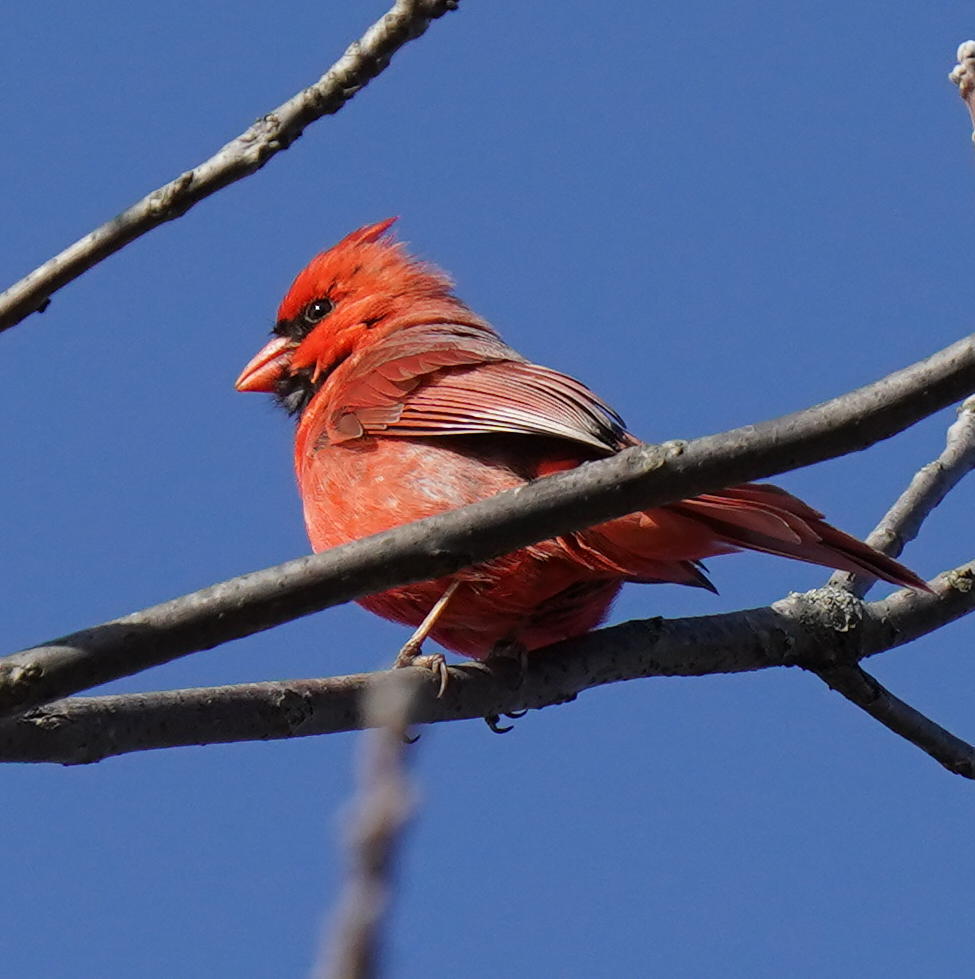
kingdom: Animalia
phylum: Chordata
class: Aves
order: Passeriformes
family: Cardinalidae
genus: Cardinalis
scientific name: Cardinalis cardinalis
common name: Northern cardinal
